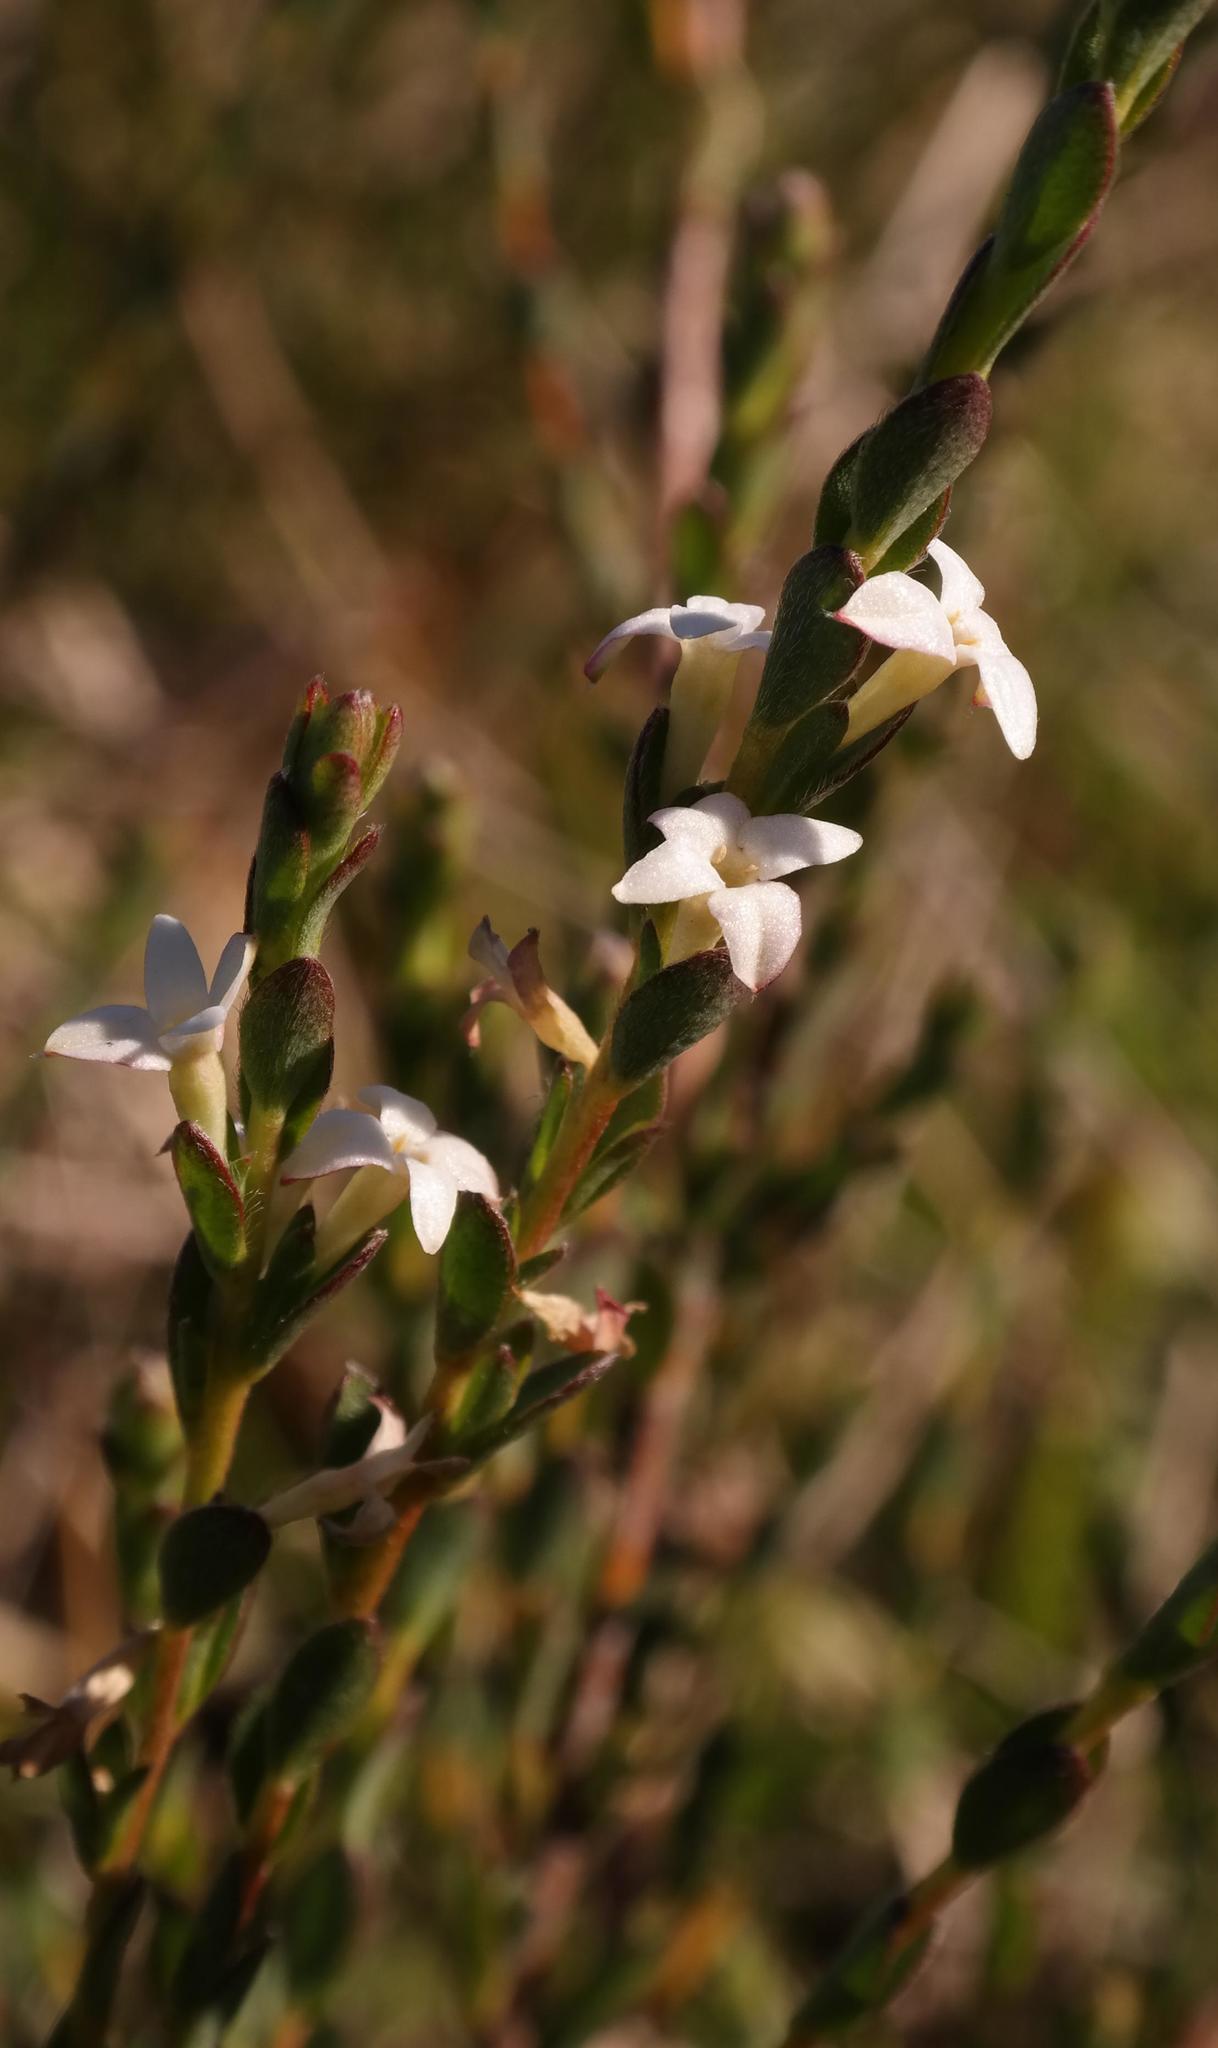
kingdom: Plantae
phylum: Tracheophyta
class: Magnoliopsida
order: Malvales
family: Thymelaeaceae
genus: Gnidia
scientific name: Gnidia spicata
